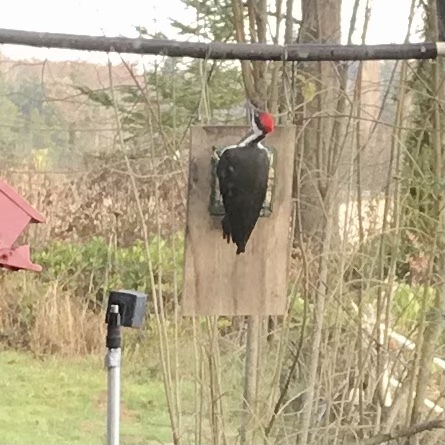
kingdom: Animalia
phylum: Chordata
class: Aves
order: Piciformes
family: Picidae
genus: Dryocopus
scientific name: Dryocopus pileatus
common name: Pileated woodpecker
